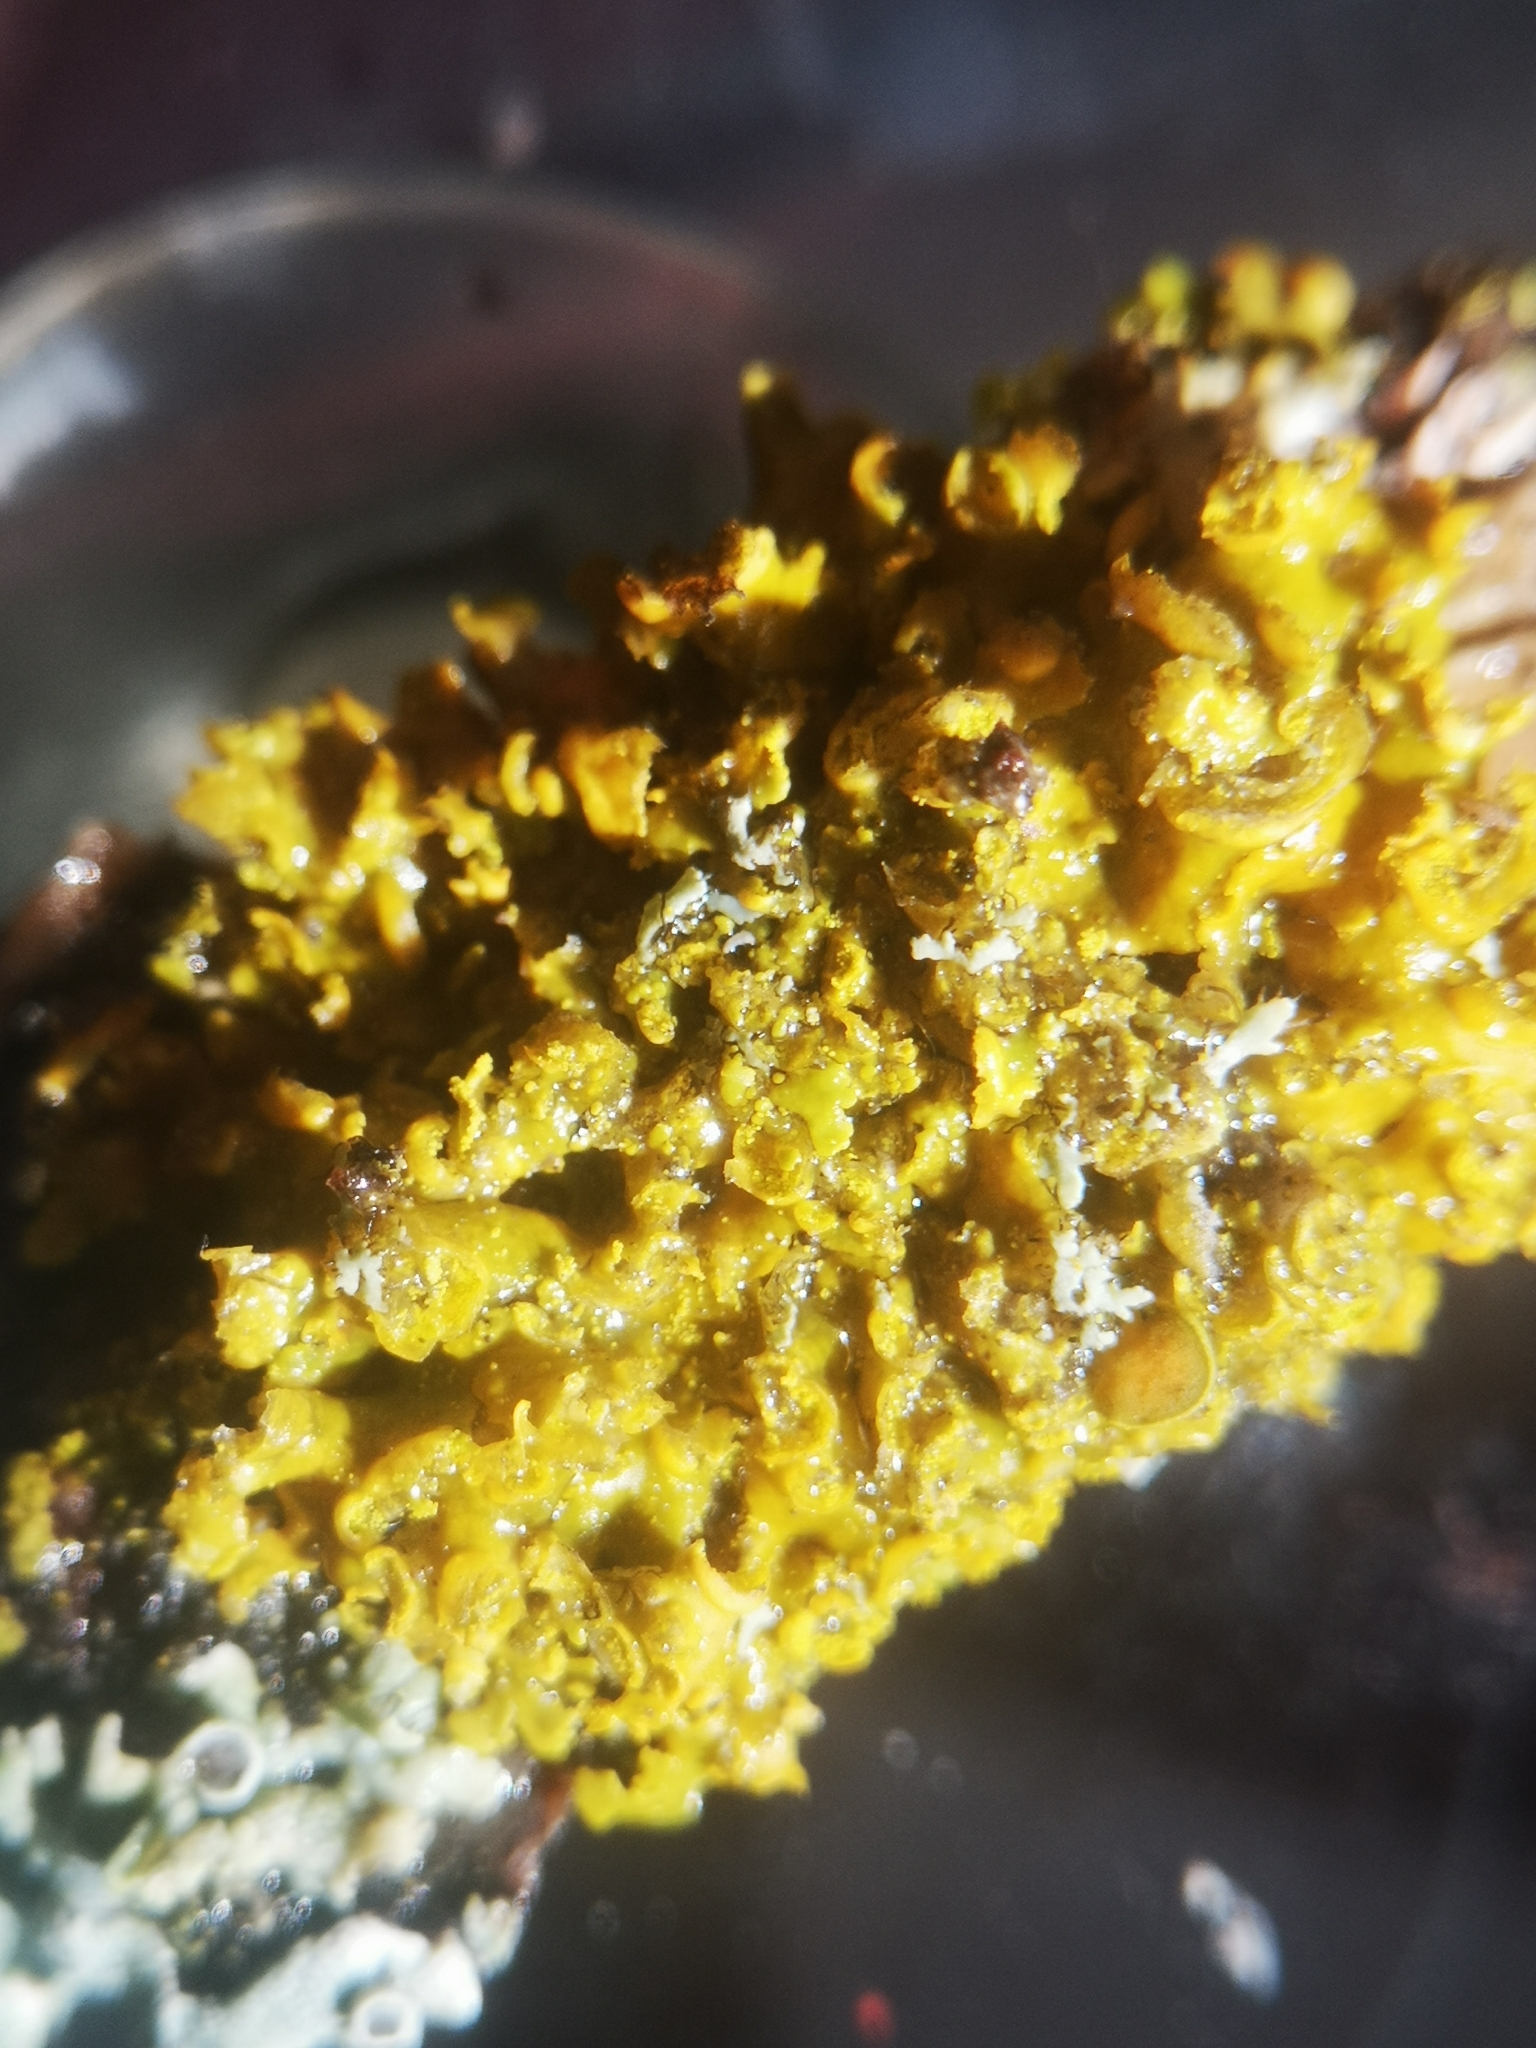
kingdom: Fungi
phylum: Ascomycota
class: Lecanoromycetes
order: Teloschistales
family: Teloschistaceae
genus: Xanthoria
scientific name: Xanthoria ulophyllodes
